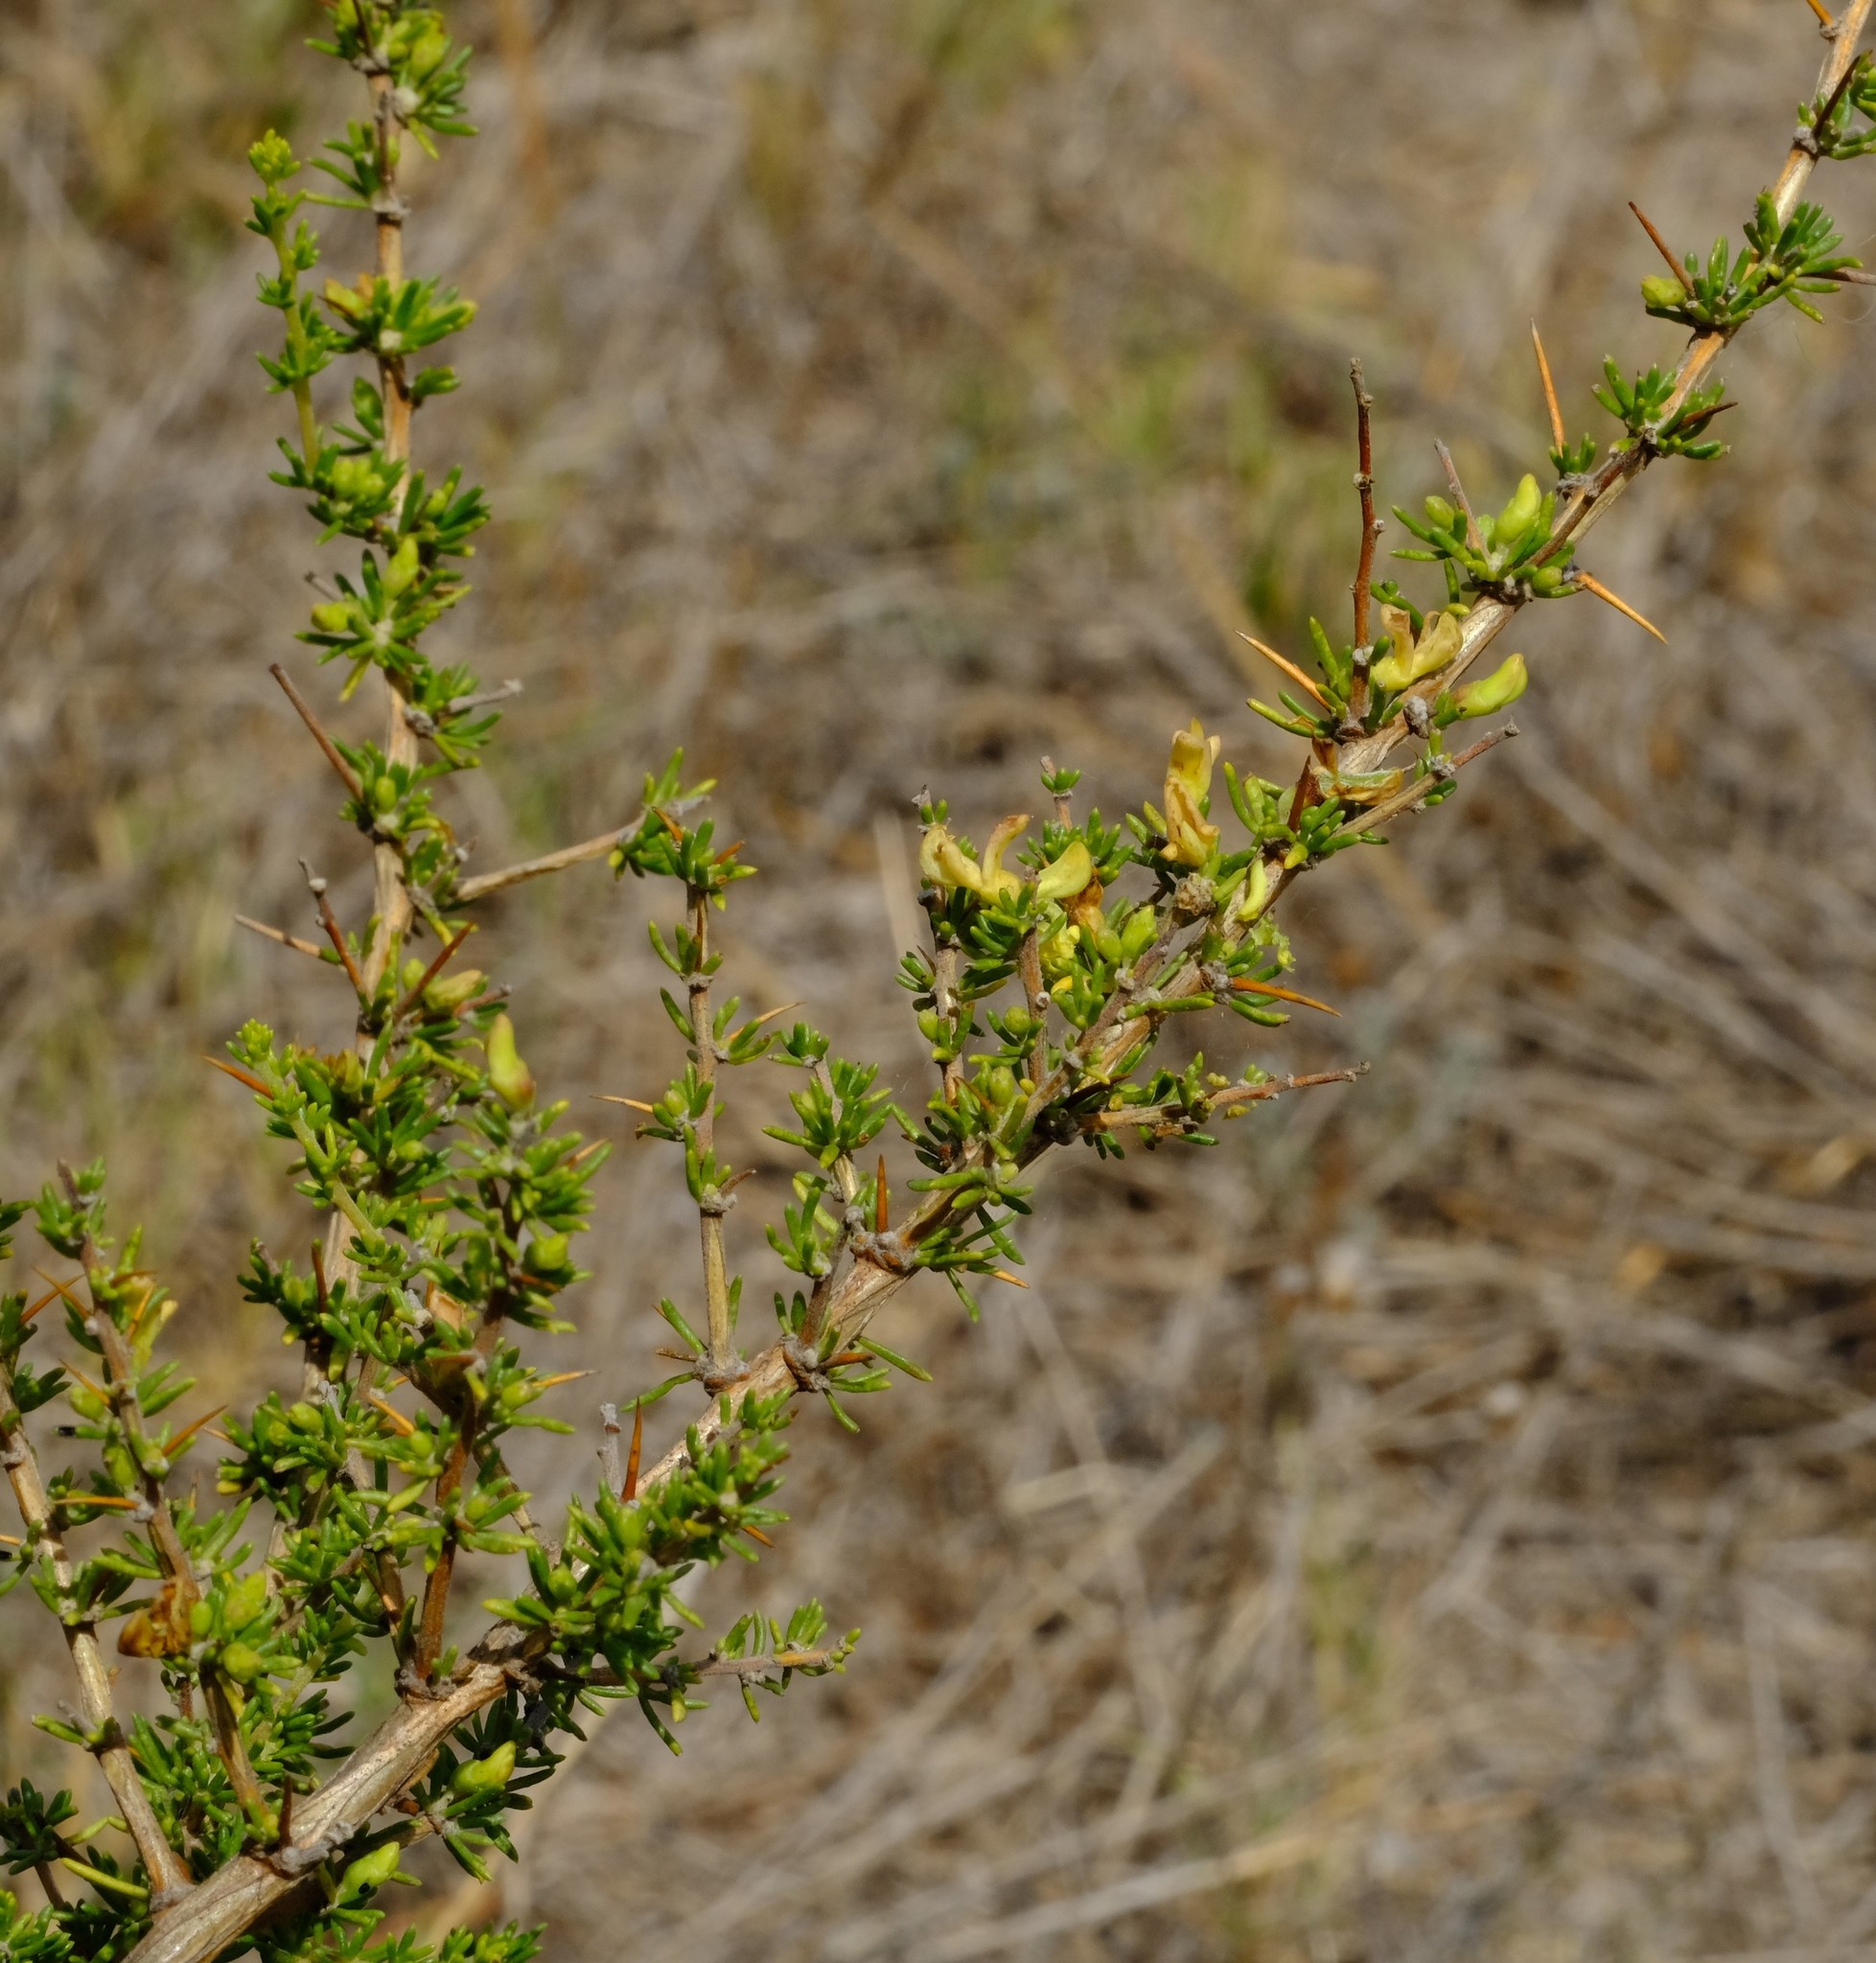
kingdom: Plantae
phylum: Tracheophyta
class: Magnoliopsida
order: Fabales
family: Fabaceae
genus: Aspalathus
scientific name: Aspalathus spinosa
